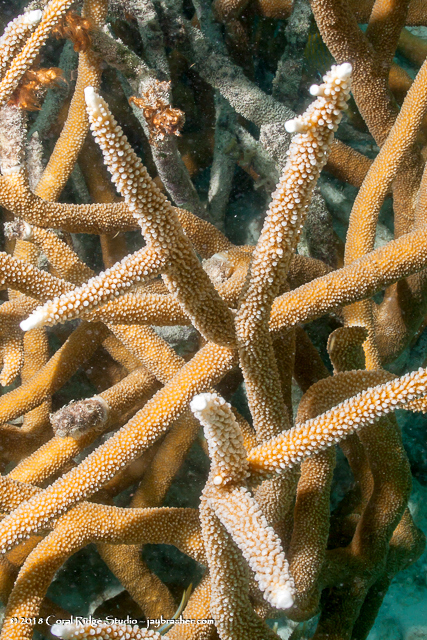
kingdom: Animalia
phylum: Cnidaria
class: Anthozoa
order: Scleractinia
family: Acroporidae
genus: Acropora
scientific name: Acropora cervicornis
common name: Staghorn coral
